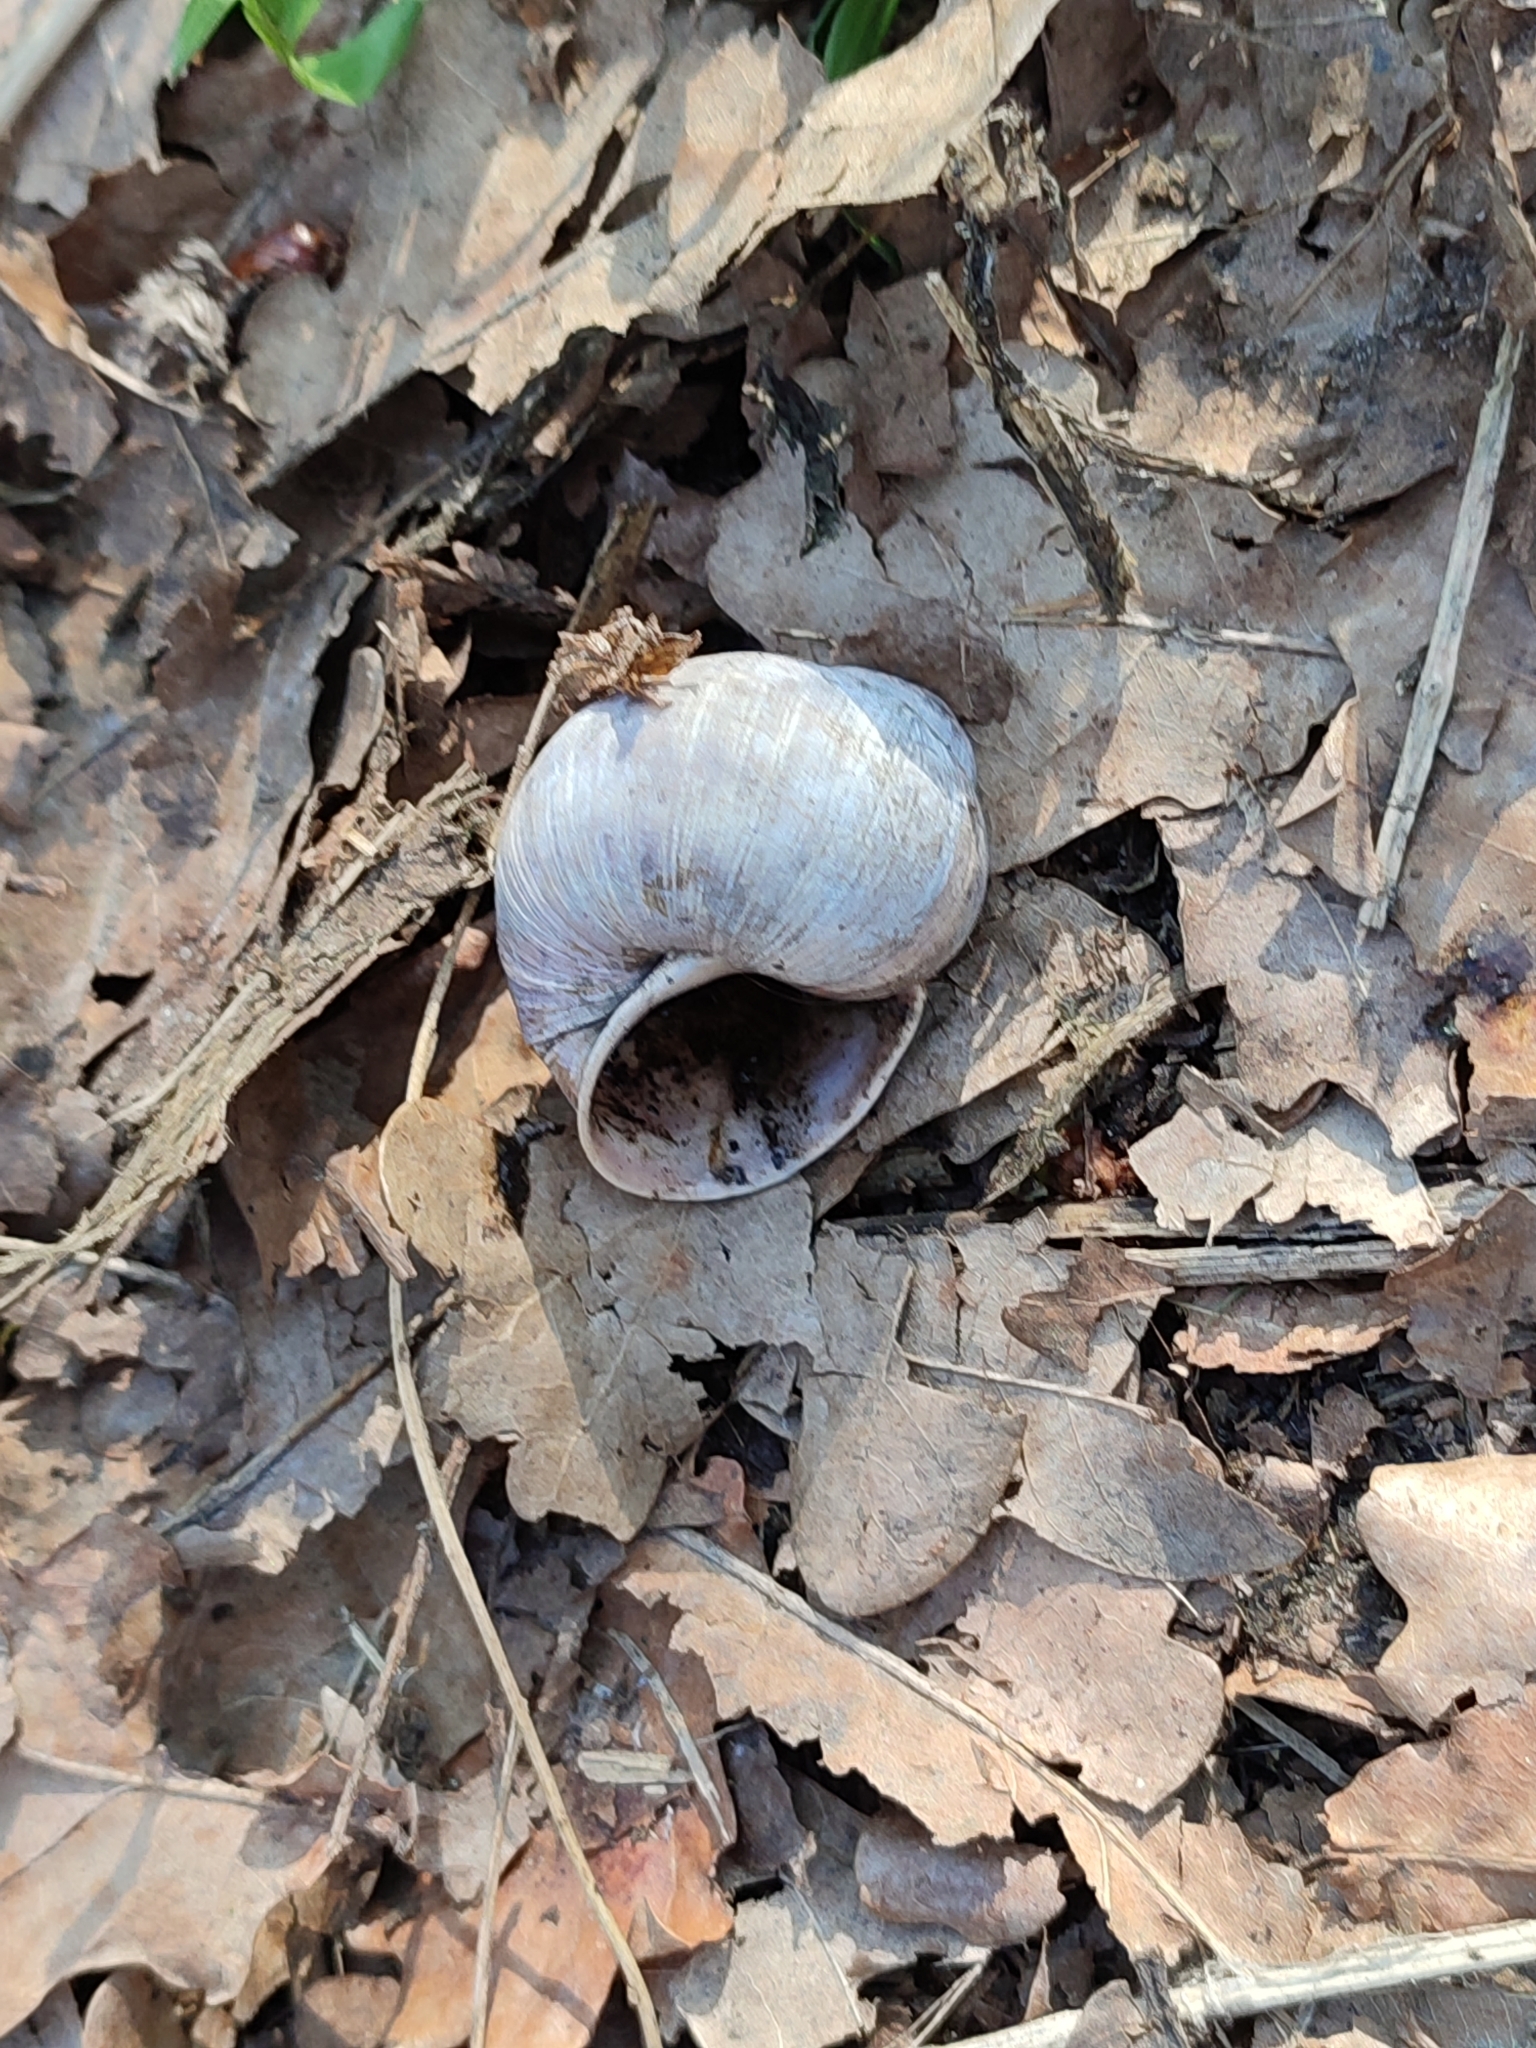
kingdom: Animalia
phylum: Mollusca
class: Gastropoda
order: Stylommatophora
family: Helicidae
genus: Helix
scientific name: Helix pomatia
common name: Roman snail
